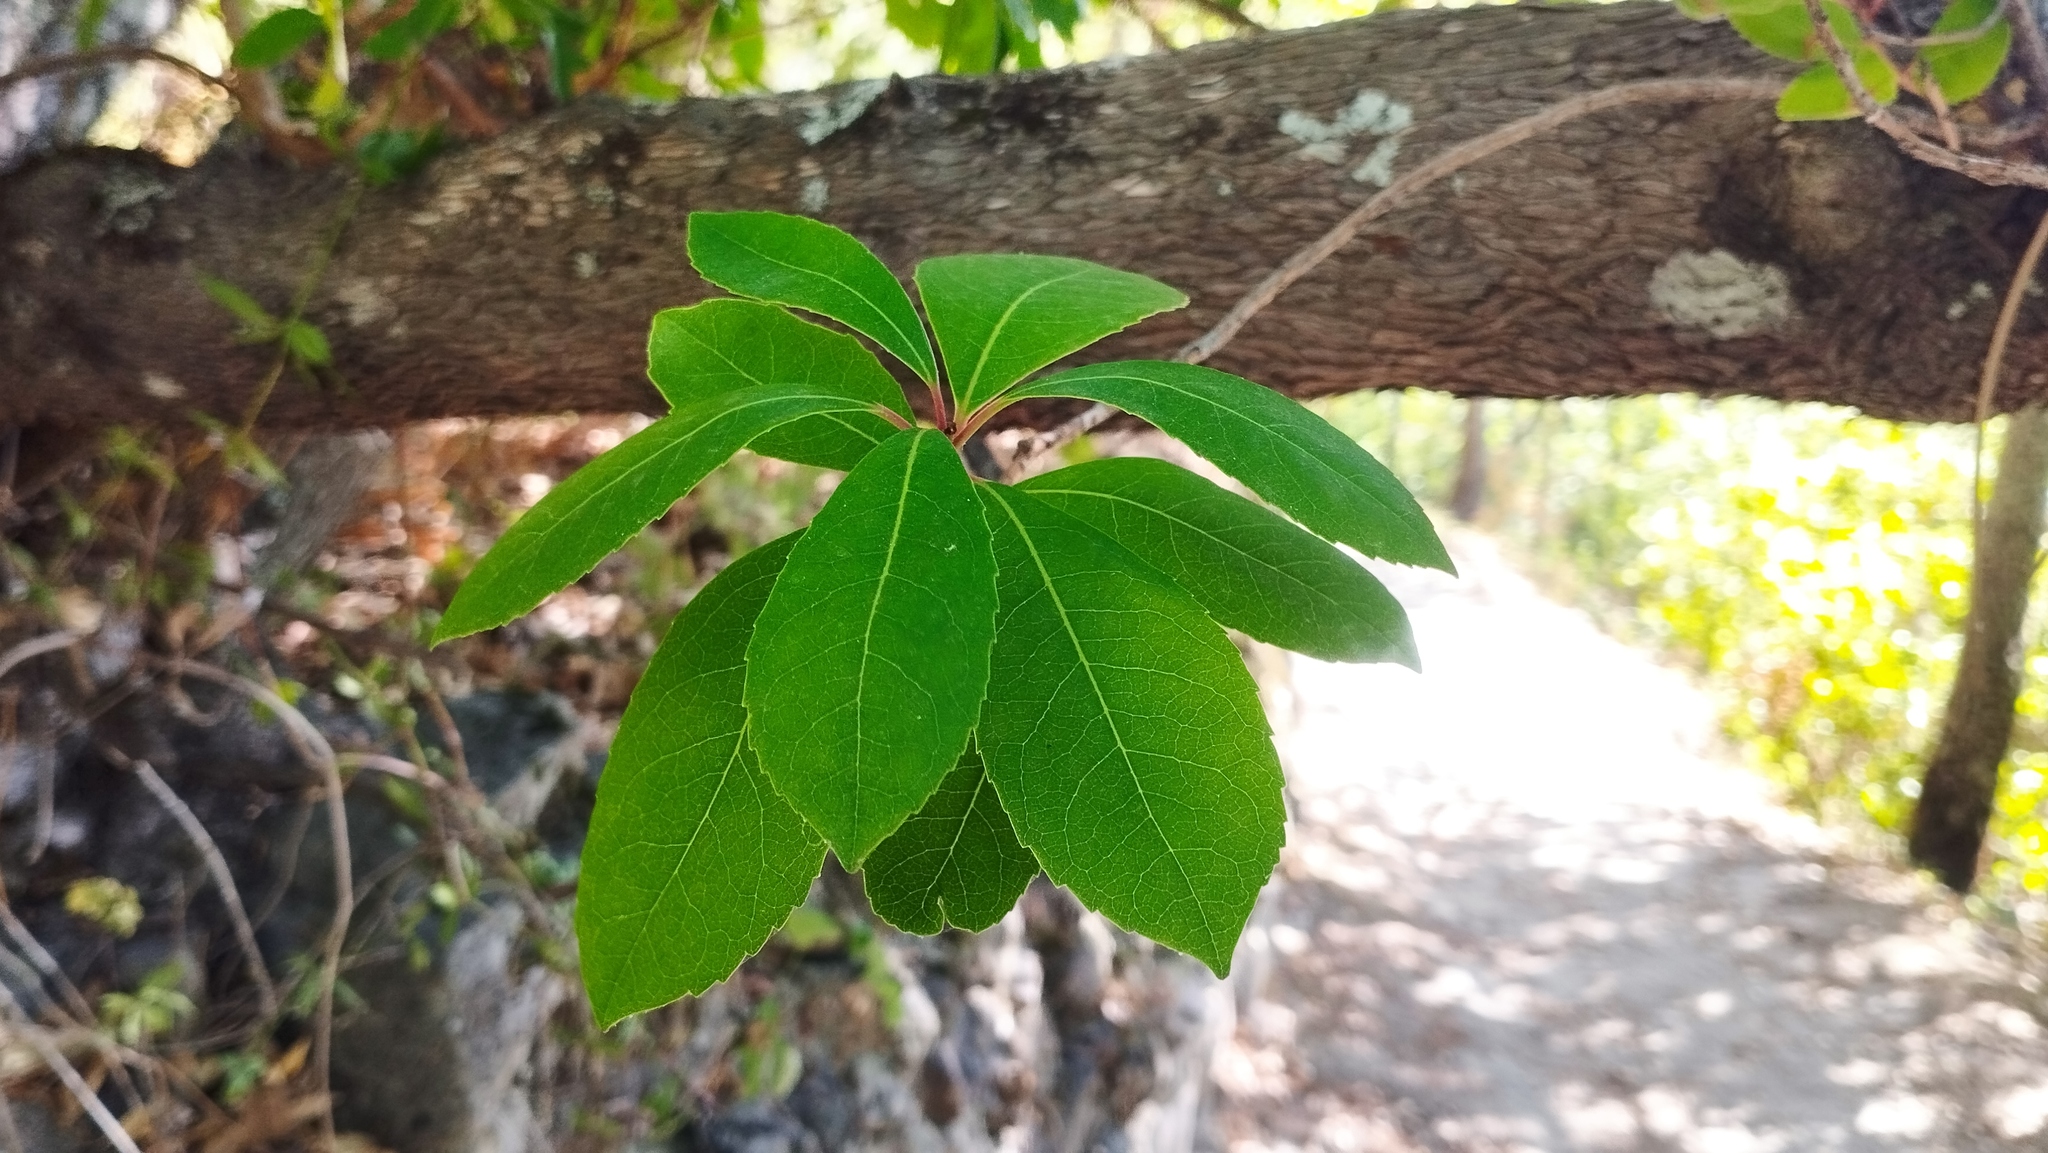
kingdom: Plantae
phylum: Tracheophyta
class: Magnoliopsida
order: Ericales
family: Ericaceae
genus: Arbutus
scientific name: Arbutus unedo
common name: Strawberry-tree
